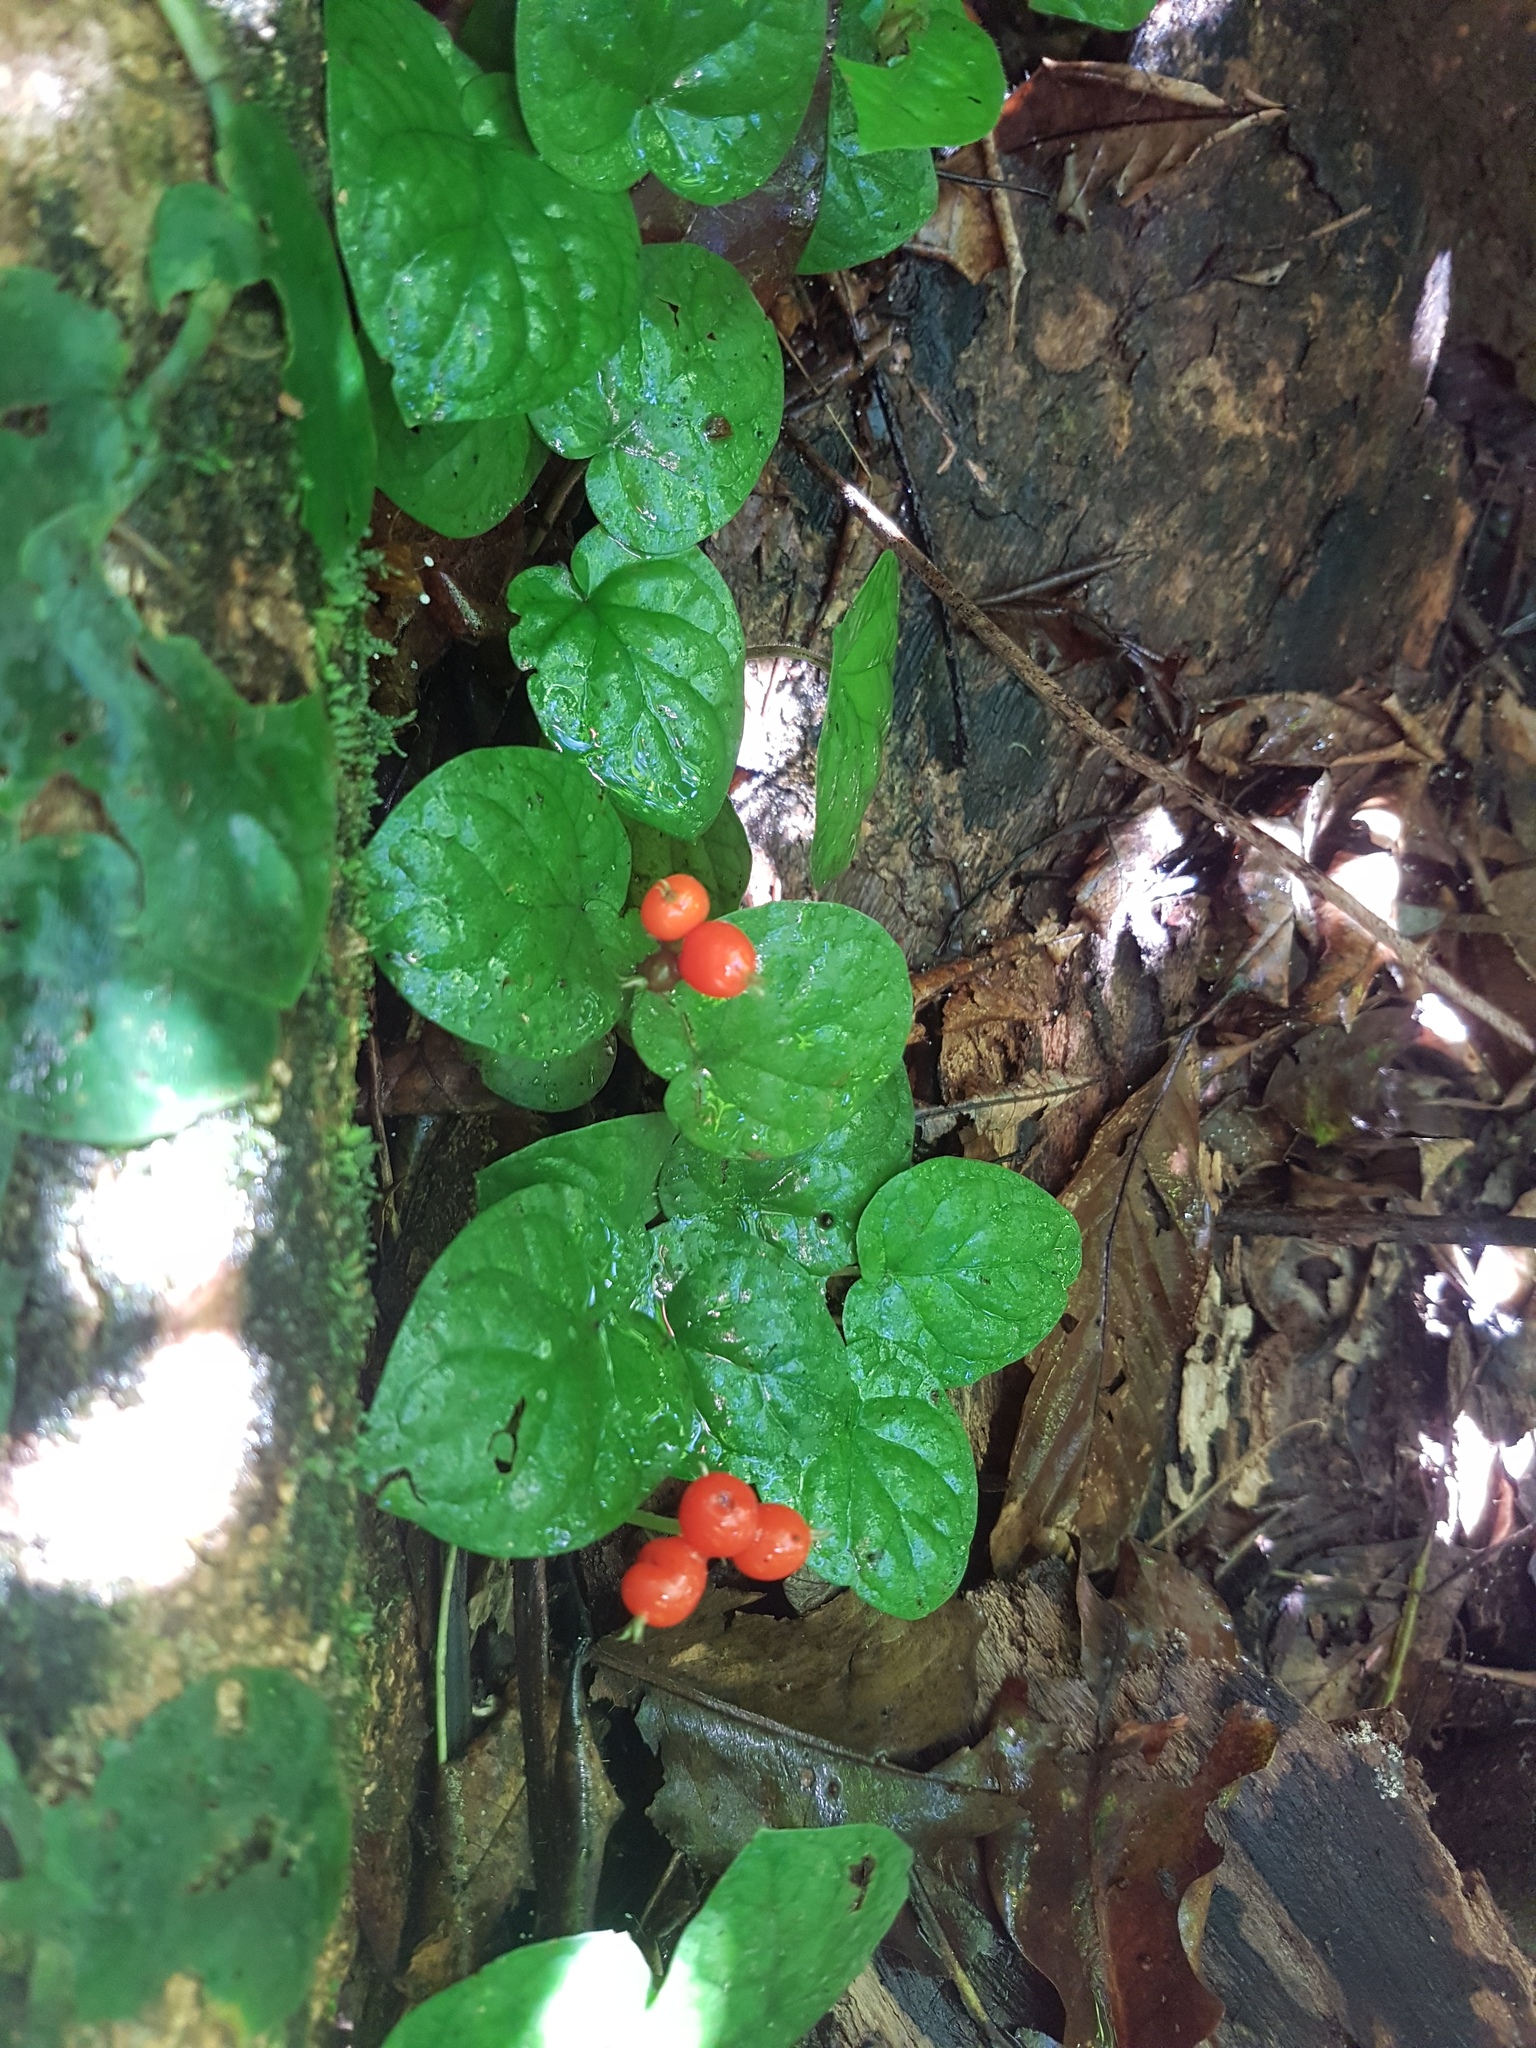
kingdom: Plantae
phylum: Tracheophyta
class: Magnoliopsida
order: Gentianales
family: Rubiaceae
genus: Geophila
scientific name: Geophila repens
